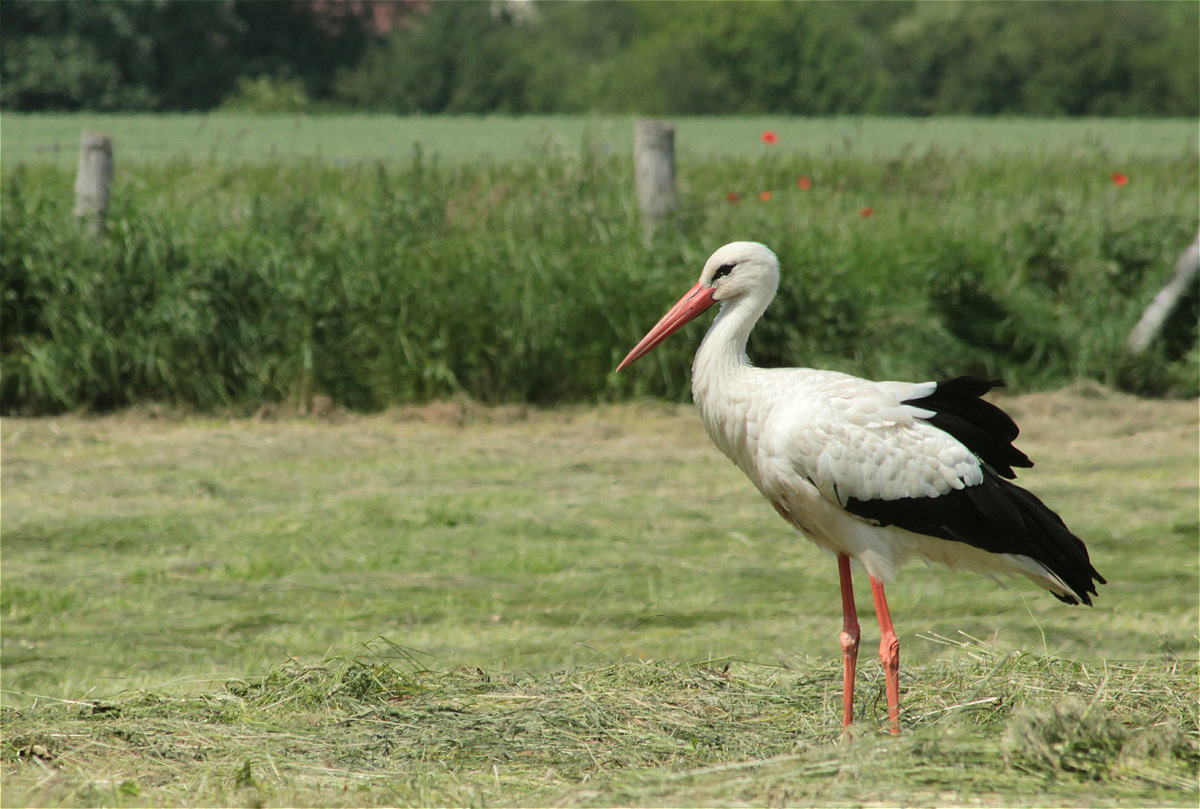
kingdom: Animalia
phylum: Chordata
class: Aves
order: Ciconiiformes
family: Ciconiidae
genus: Ciconia
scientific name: Ciconia ciconia
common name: White stork
